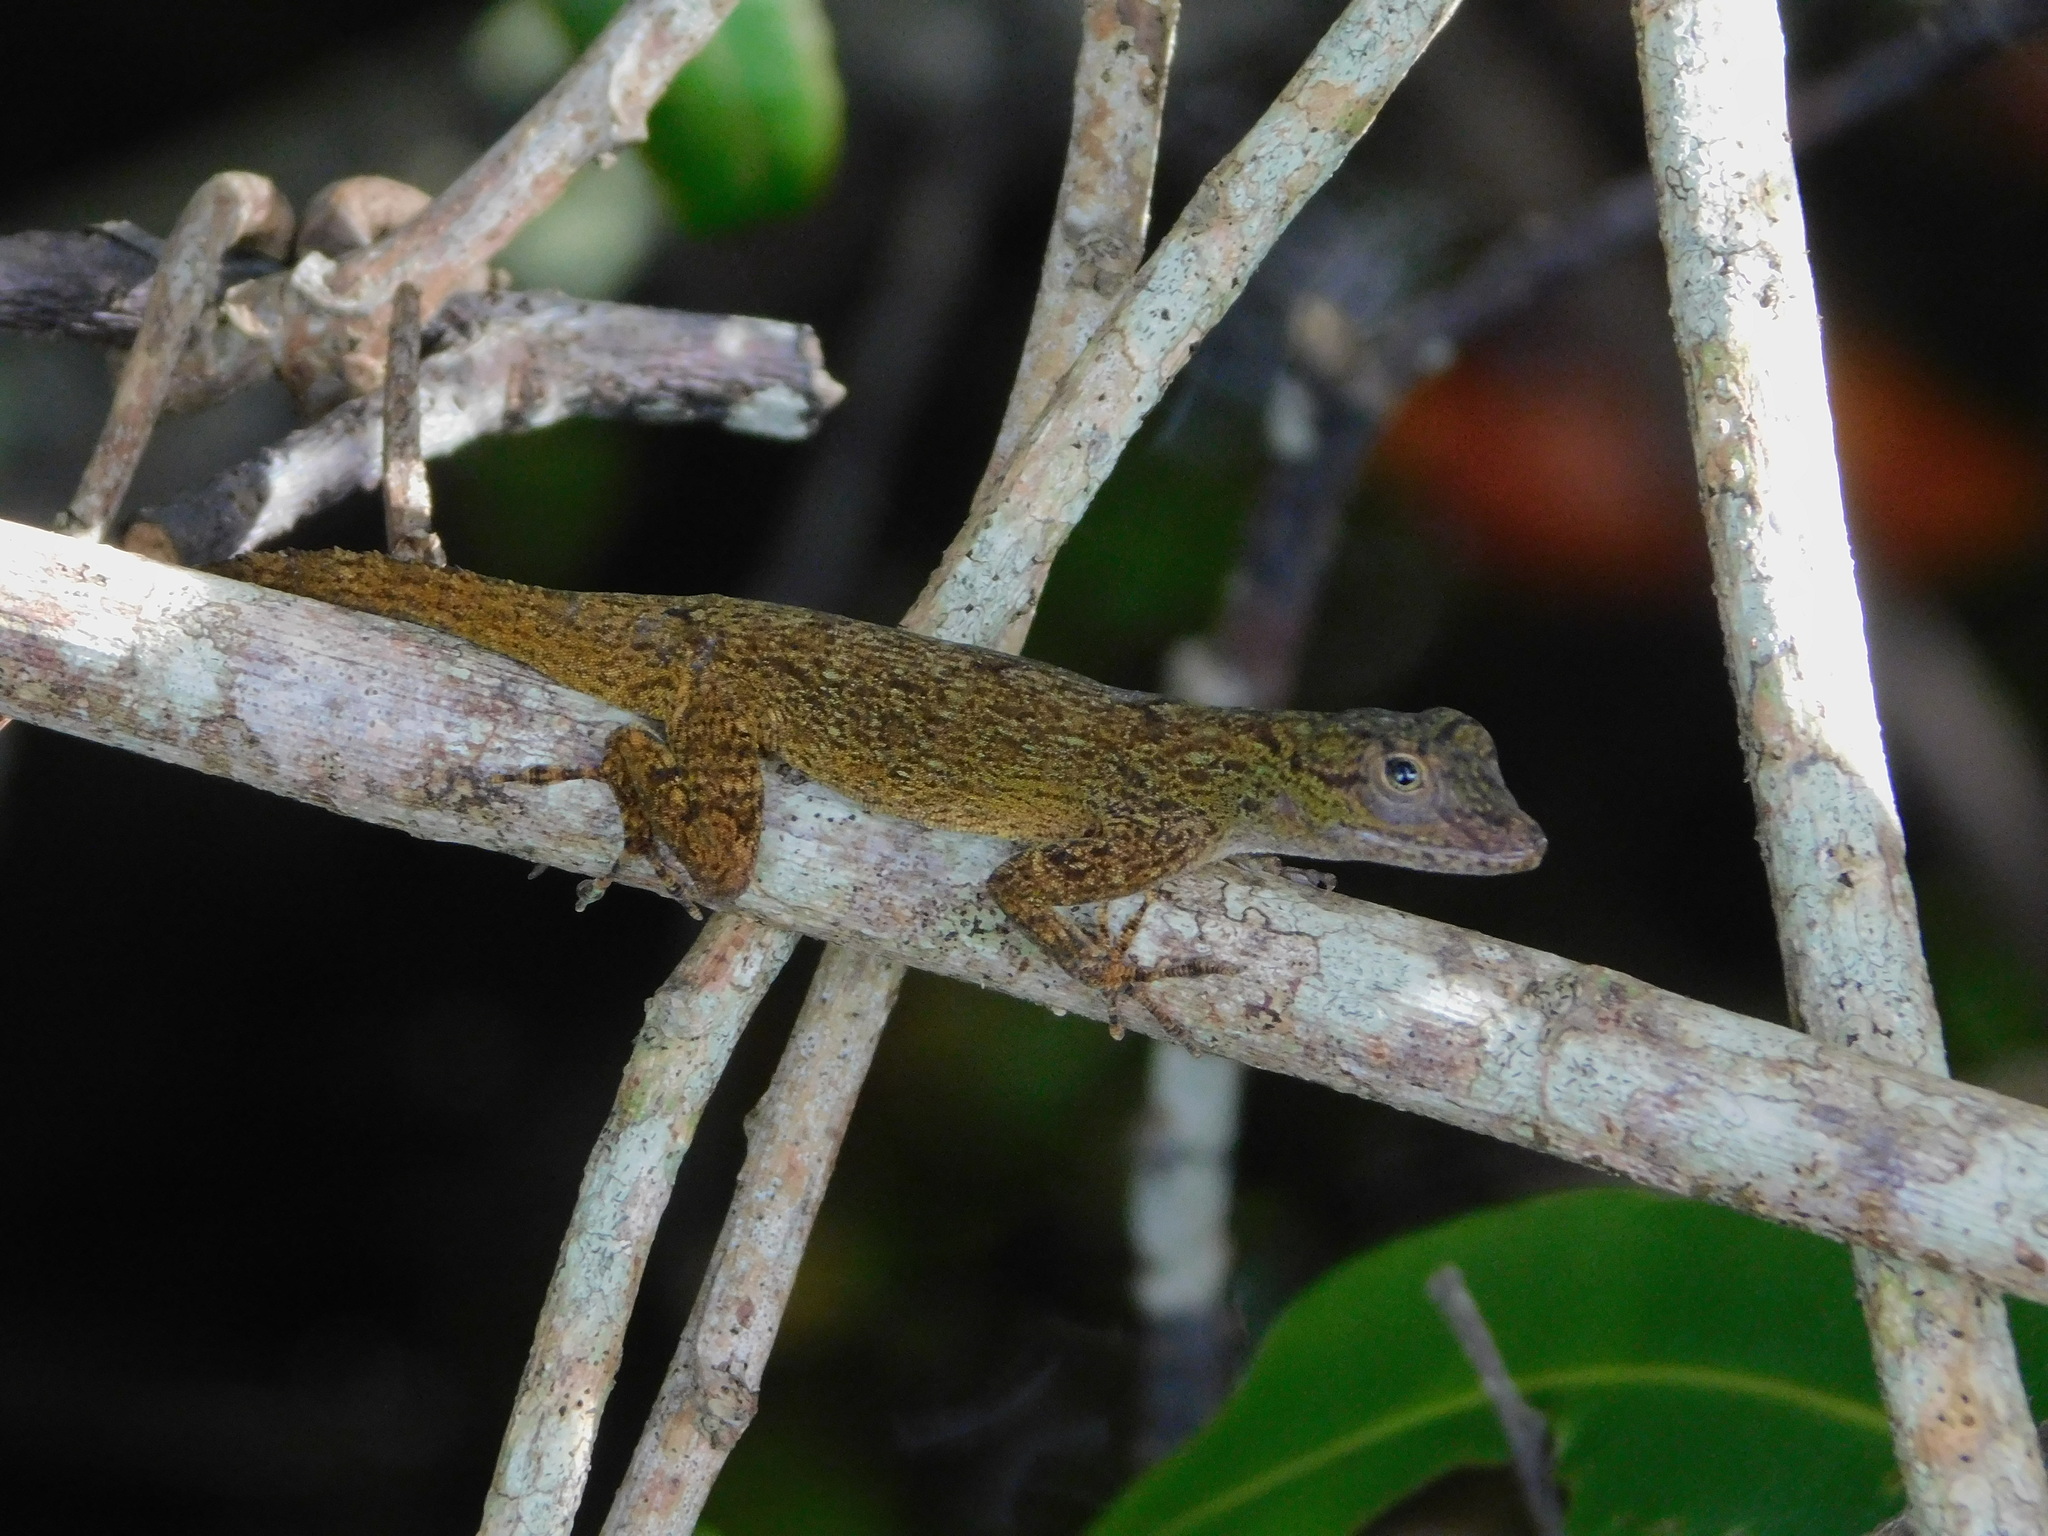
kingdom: Animalia
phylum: Chordata
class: Squamata
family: Dactyloidae
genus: Anolis
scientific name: Anolis distichus
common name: Bark anole
